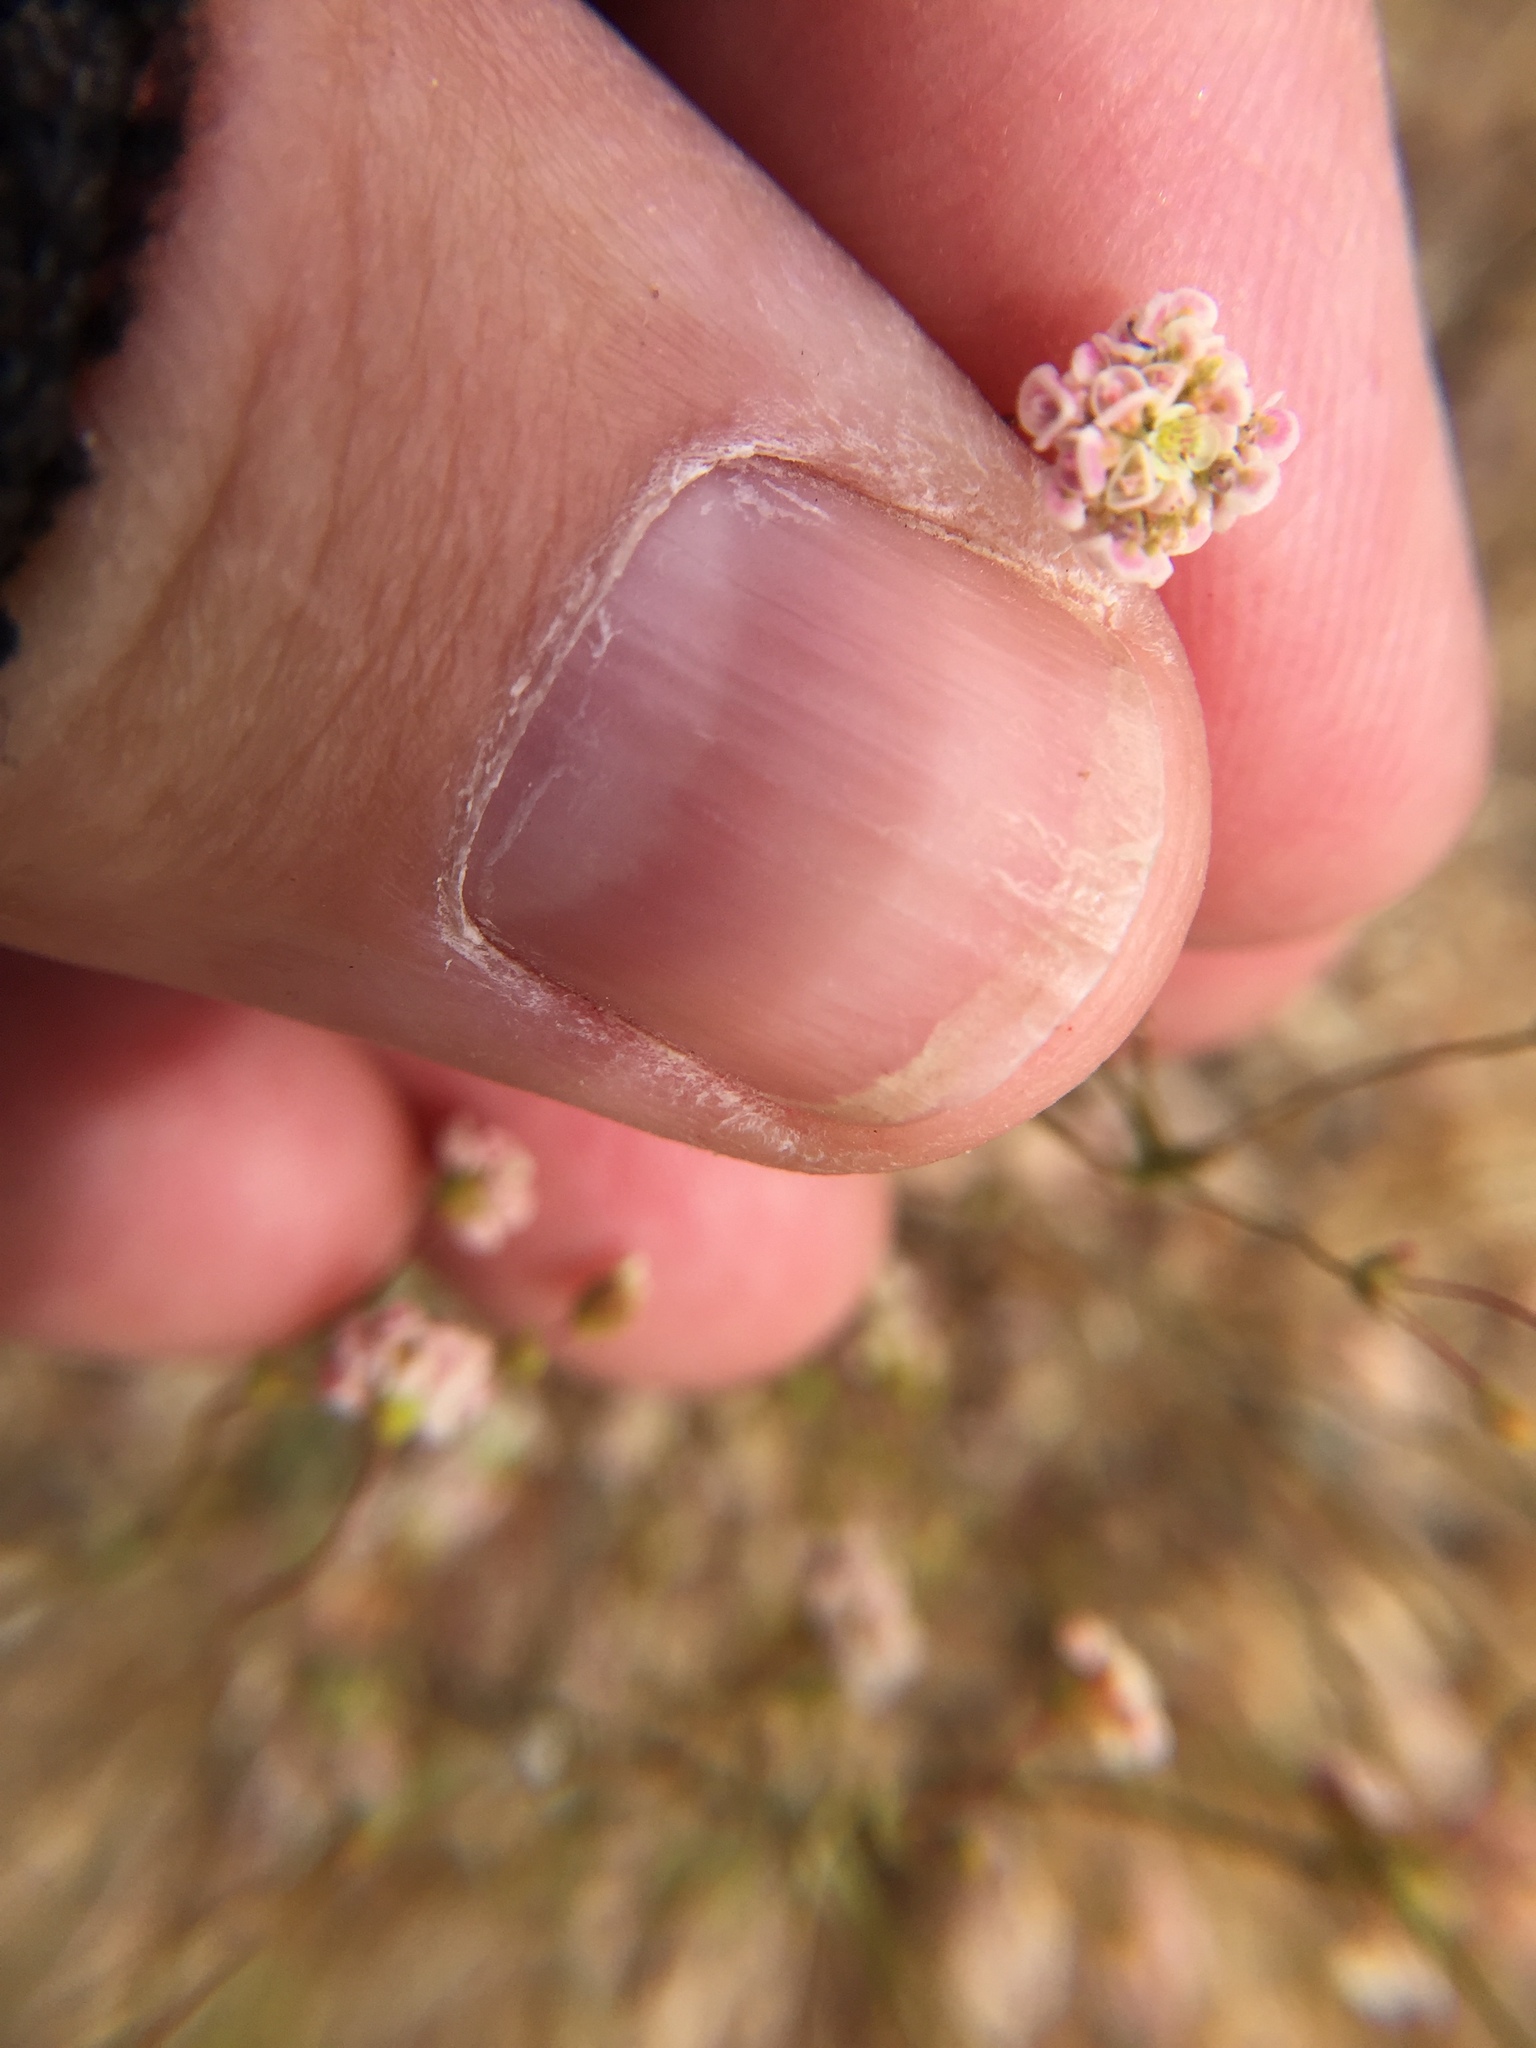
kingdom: Plantae
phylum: Tracheophyta
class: Magnoliopsida
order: Caryophyllales
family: Polygonaceae
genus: Eriogonum
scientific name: Eriogonum thurberi
